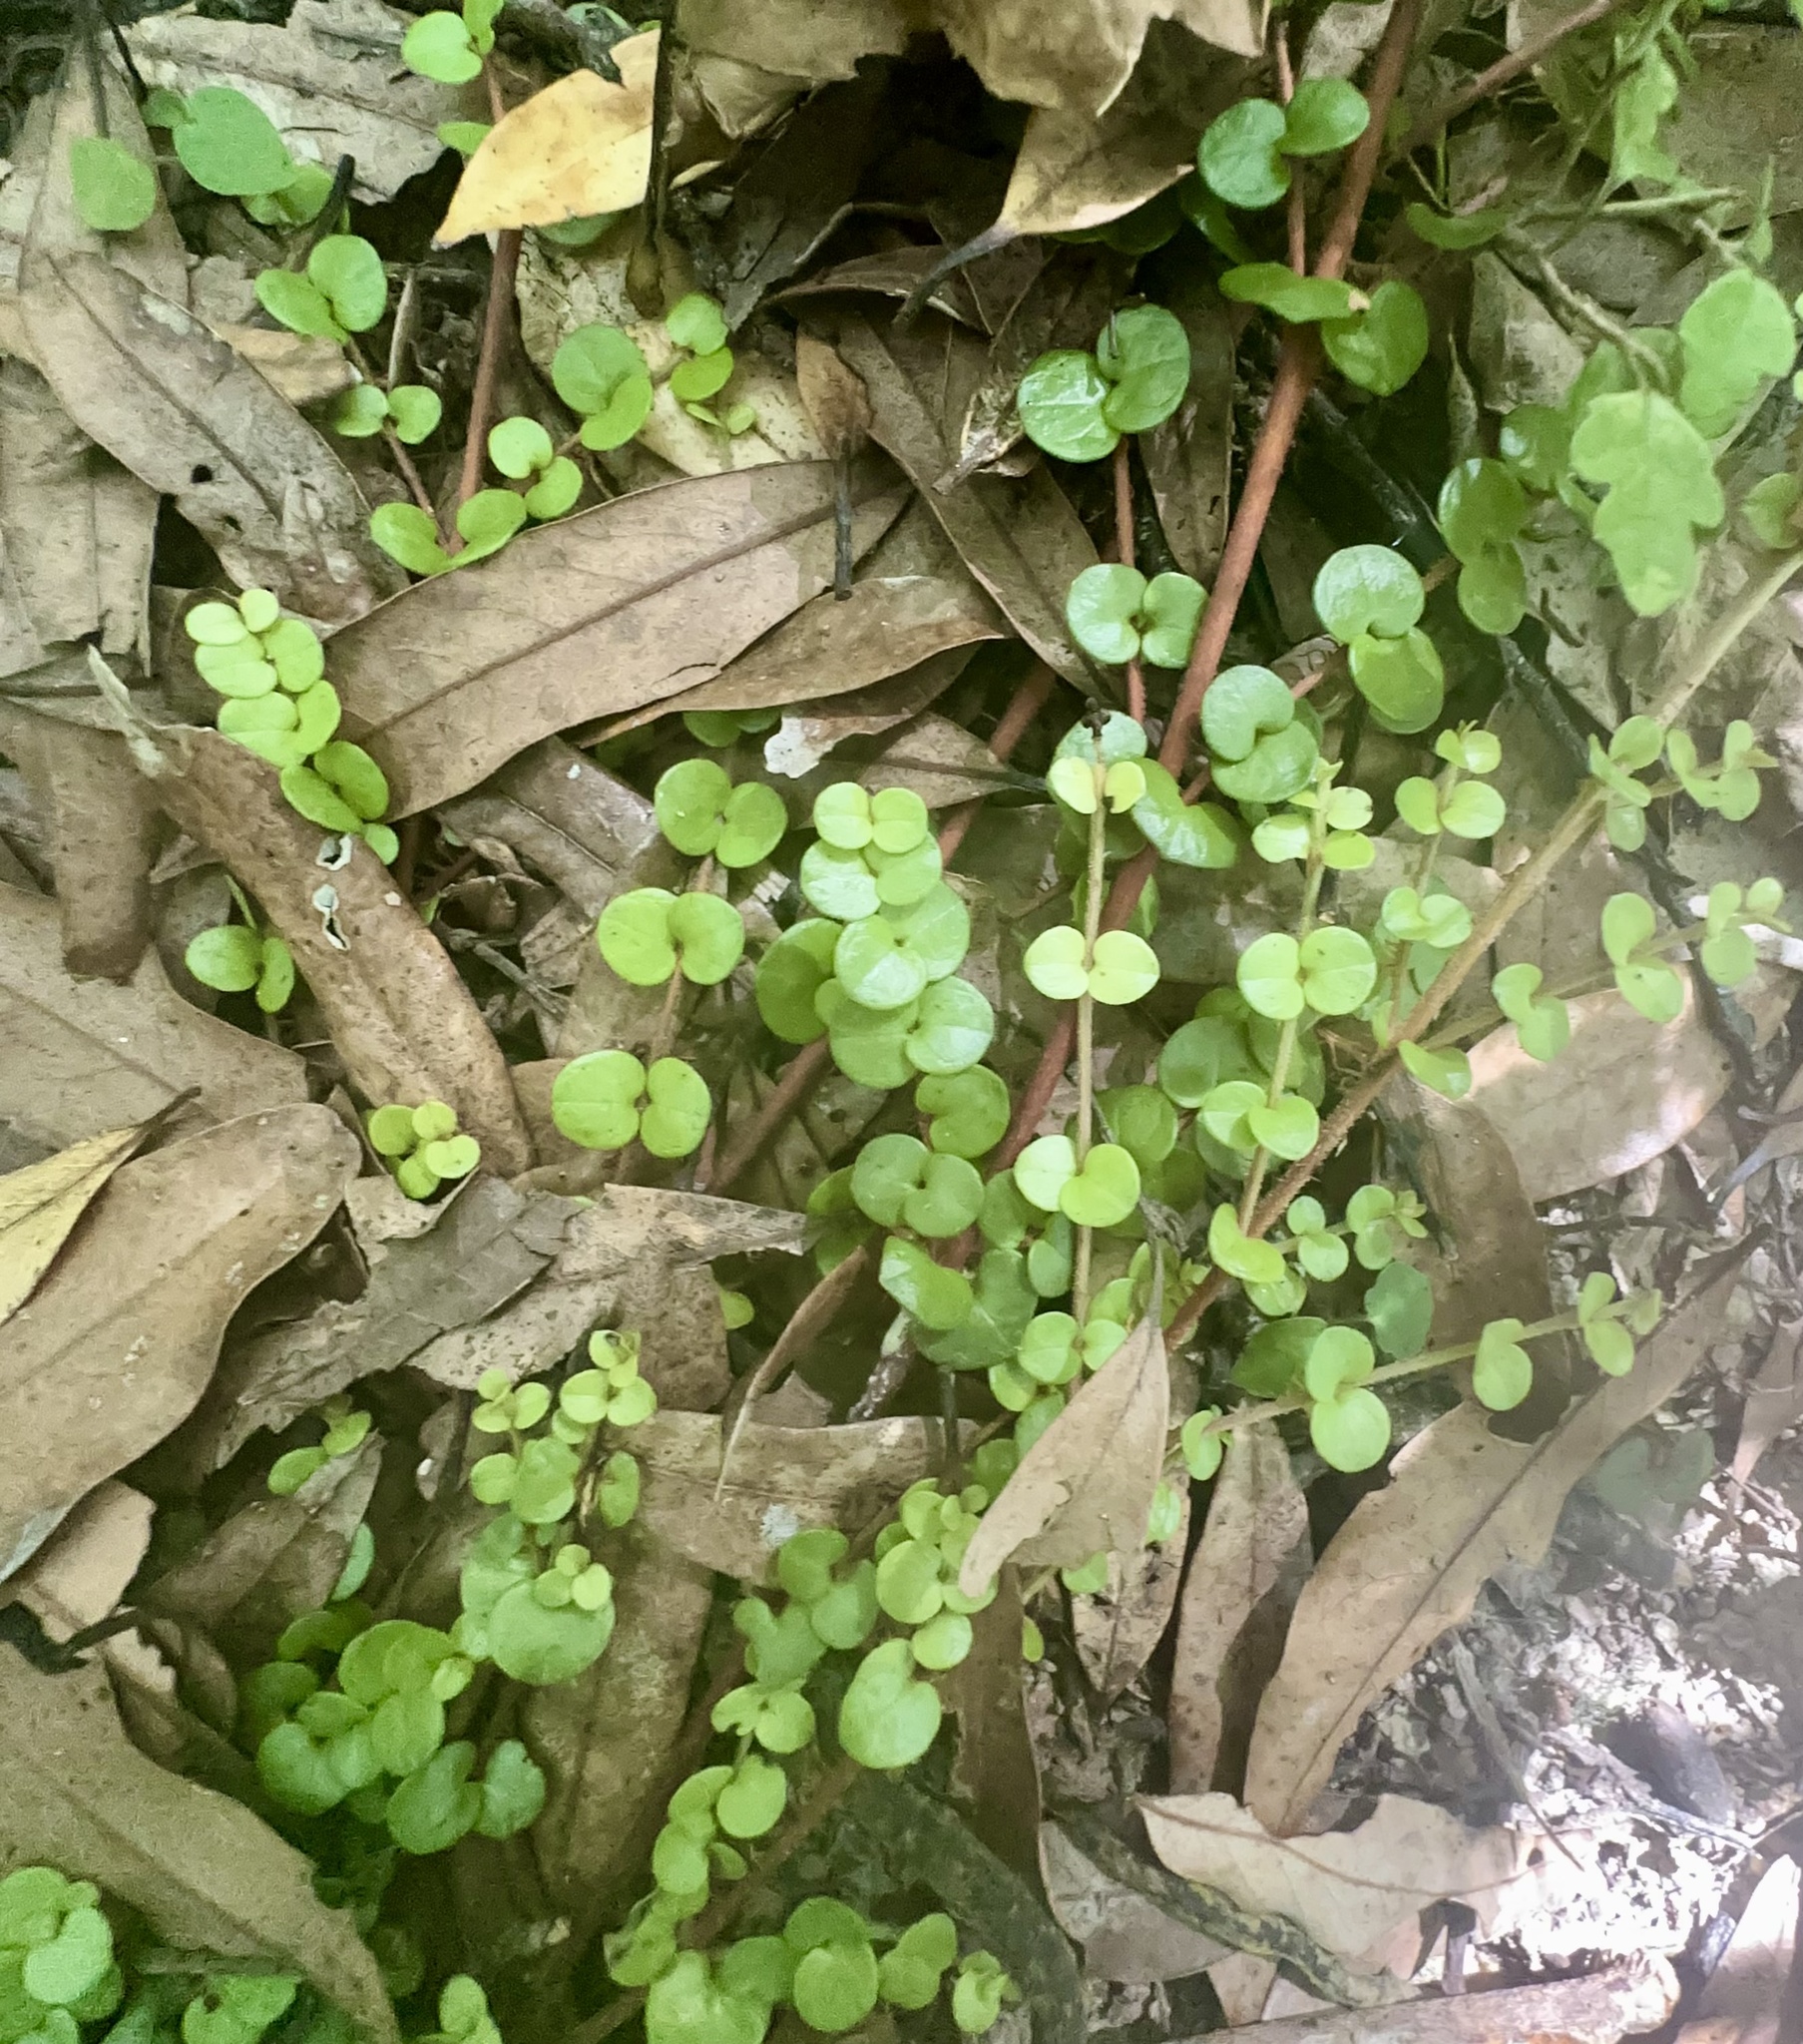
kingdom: Plantae
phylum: Tracheophyta
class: Magnoliopsida
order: Myrtales
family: Myrtaceae
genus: Metrosideros
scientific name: Metrosideros perforata
